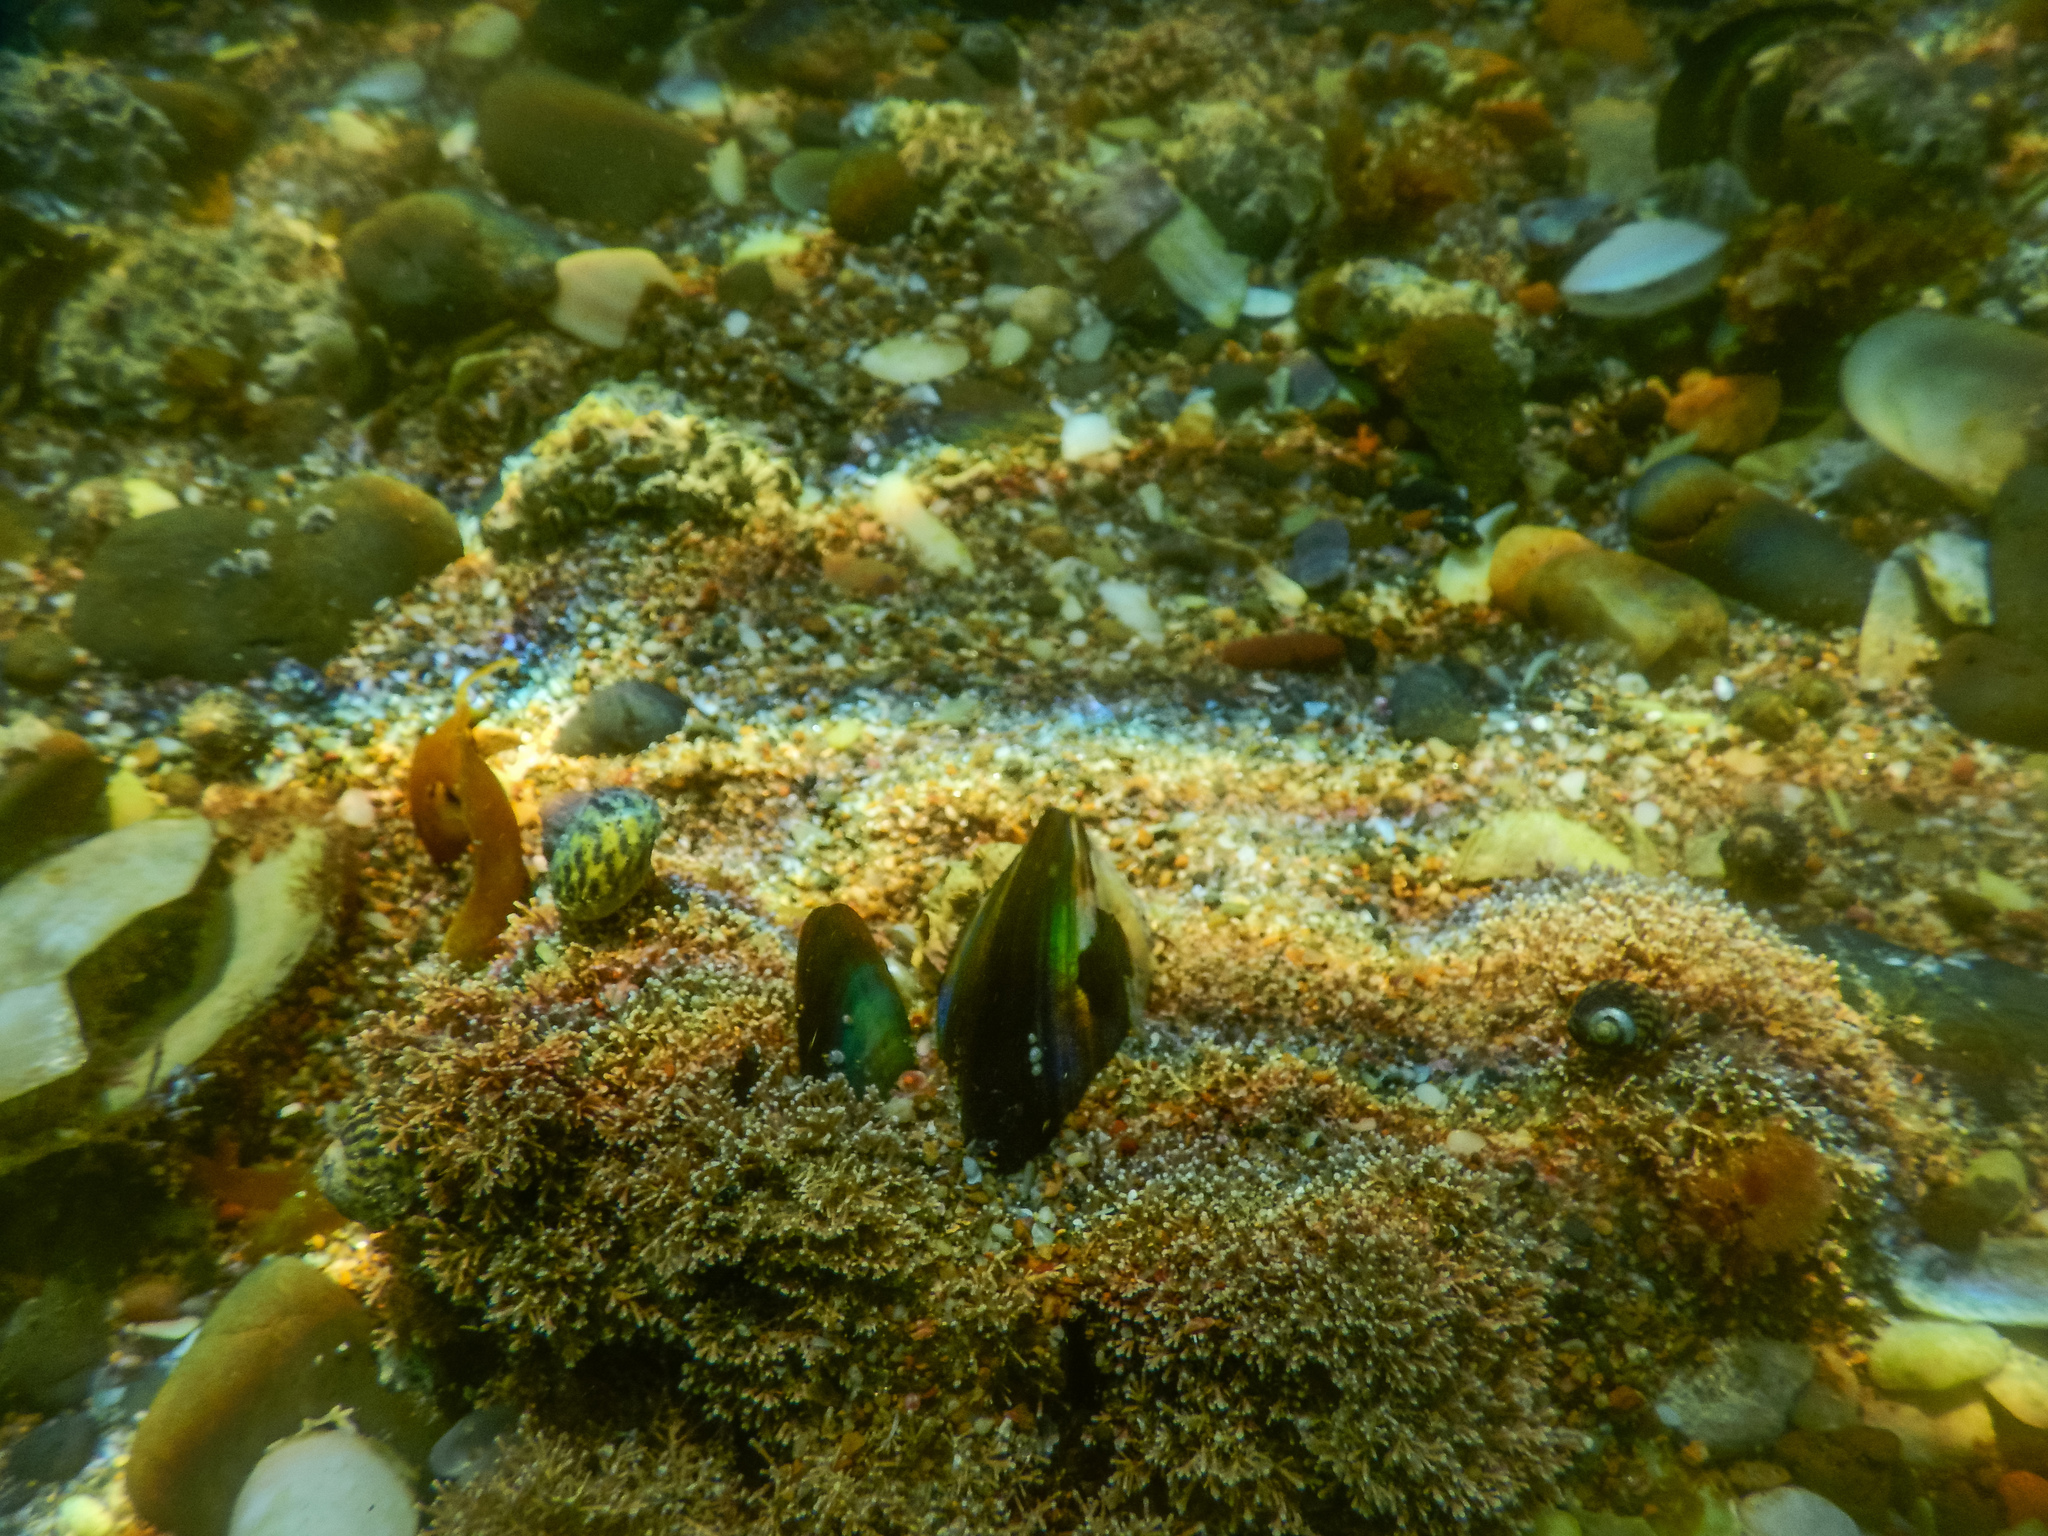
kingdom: Animalia
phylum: Mollusca
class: Bivalvia
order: Mytilida
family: Mytilidae
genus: Perna
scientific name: Perna canaliculus
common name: New zealand greenshelltm
